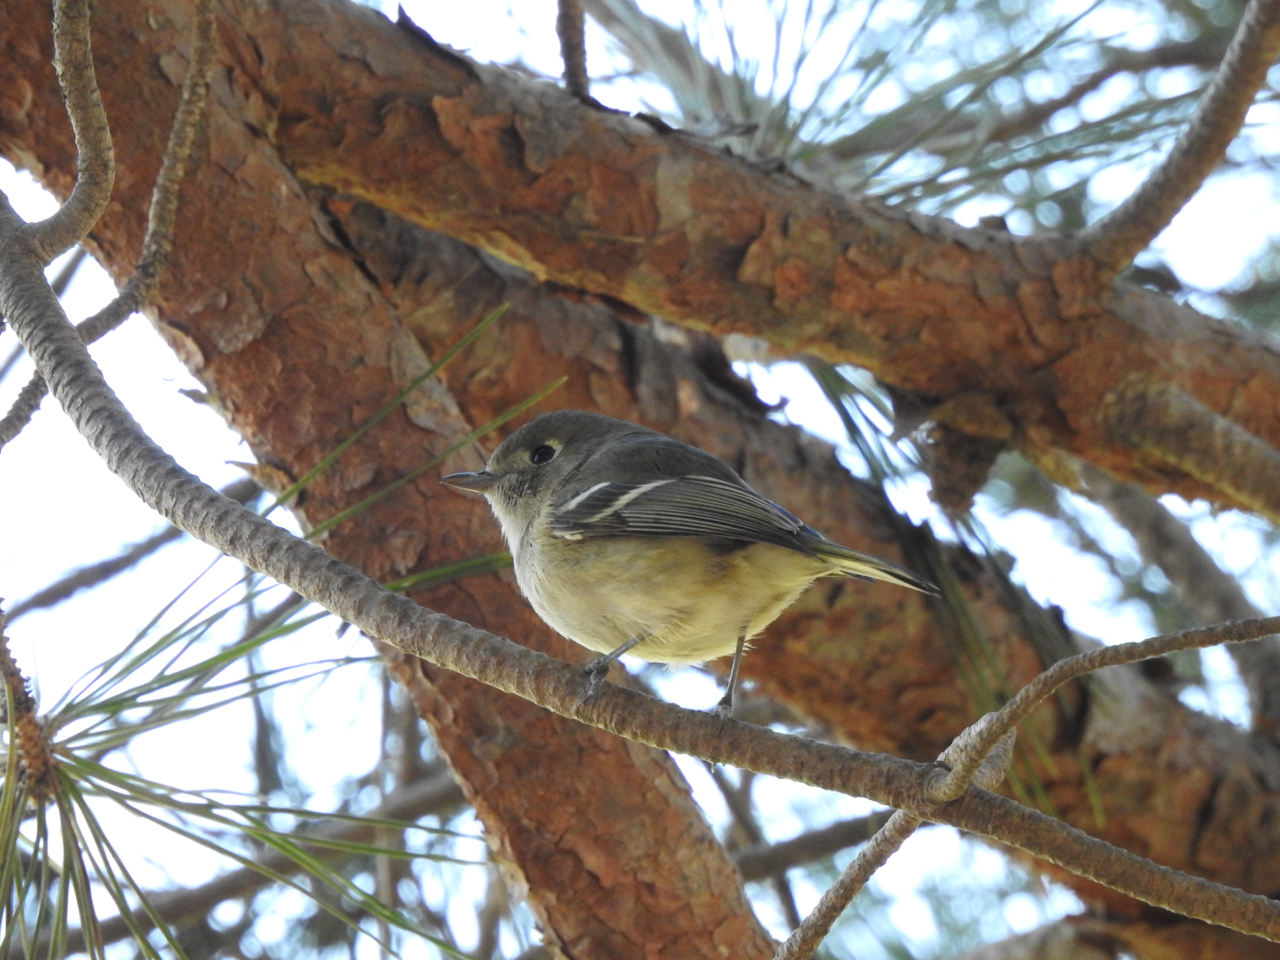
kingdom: Animalia
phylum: Chordata
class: Aves
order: Passeriformes
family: Vireonidae
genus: Vireo
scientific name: Vireo huttoni
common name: Hutton's vireo
